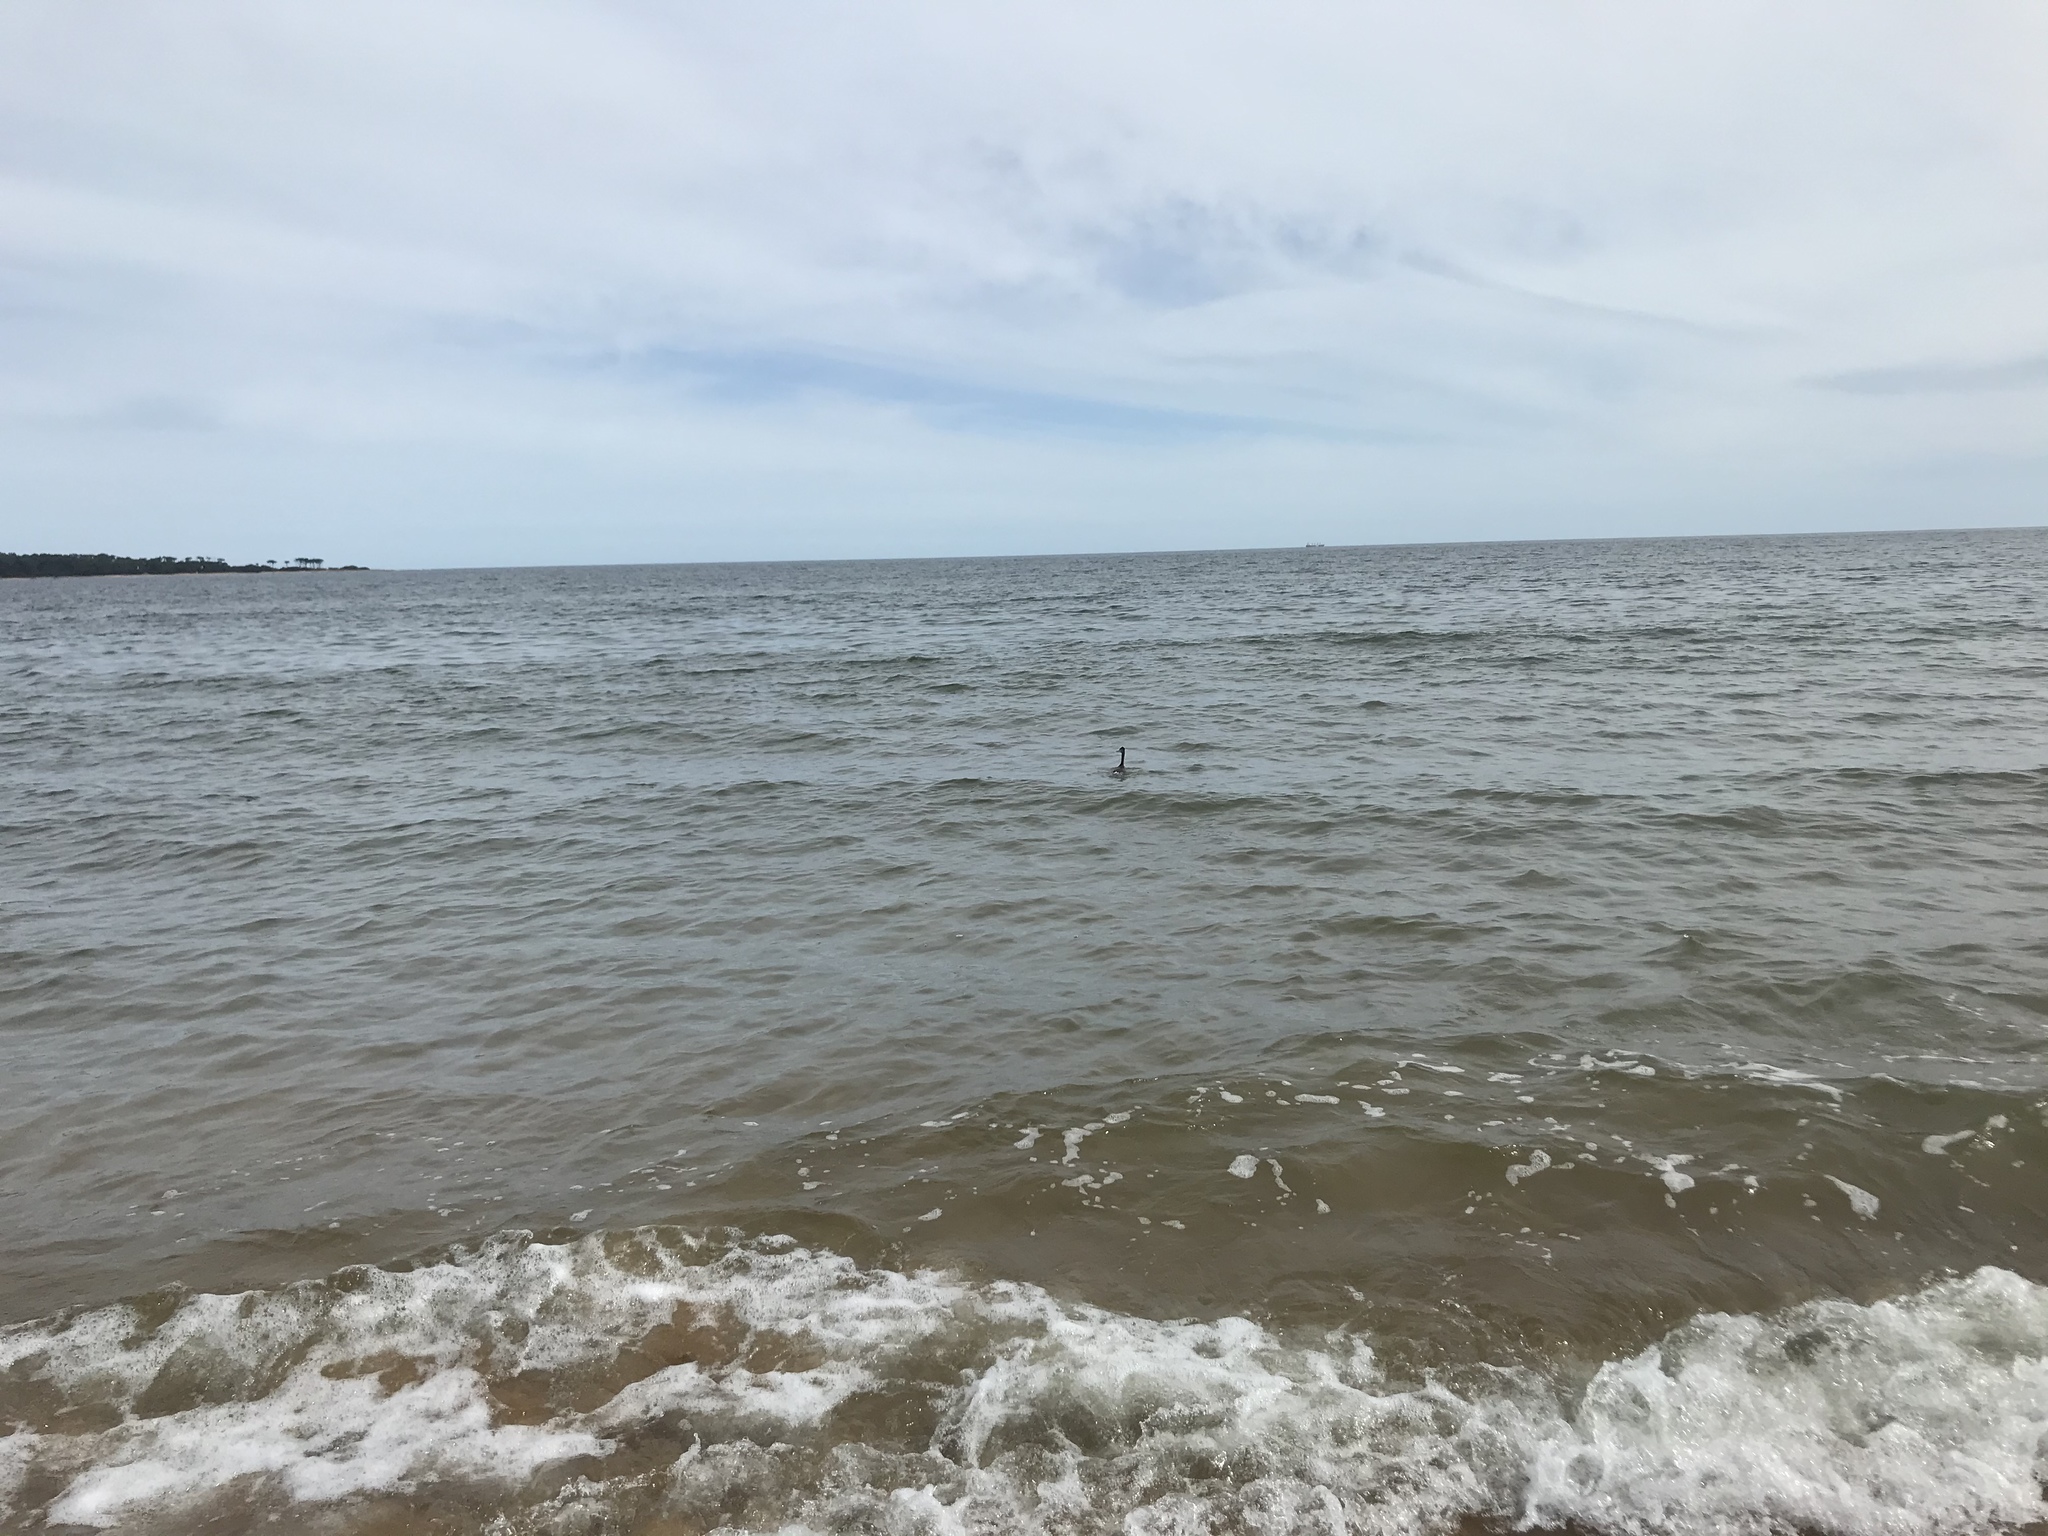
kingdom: Animalia
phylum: Chordata
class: Aves
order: Podicipediformes
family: Podicipedidae
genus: Podiceps
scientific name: Podiceps major
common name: Great grebe
